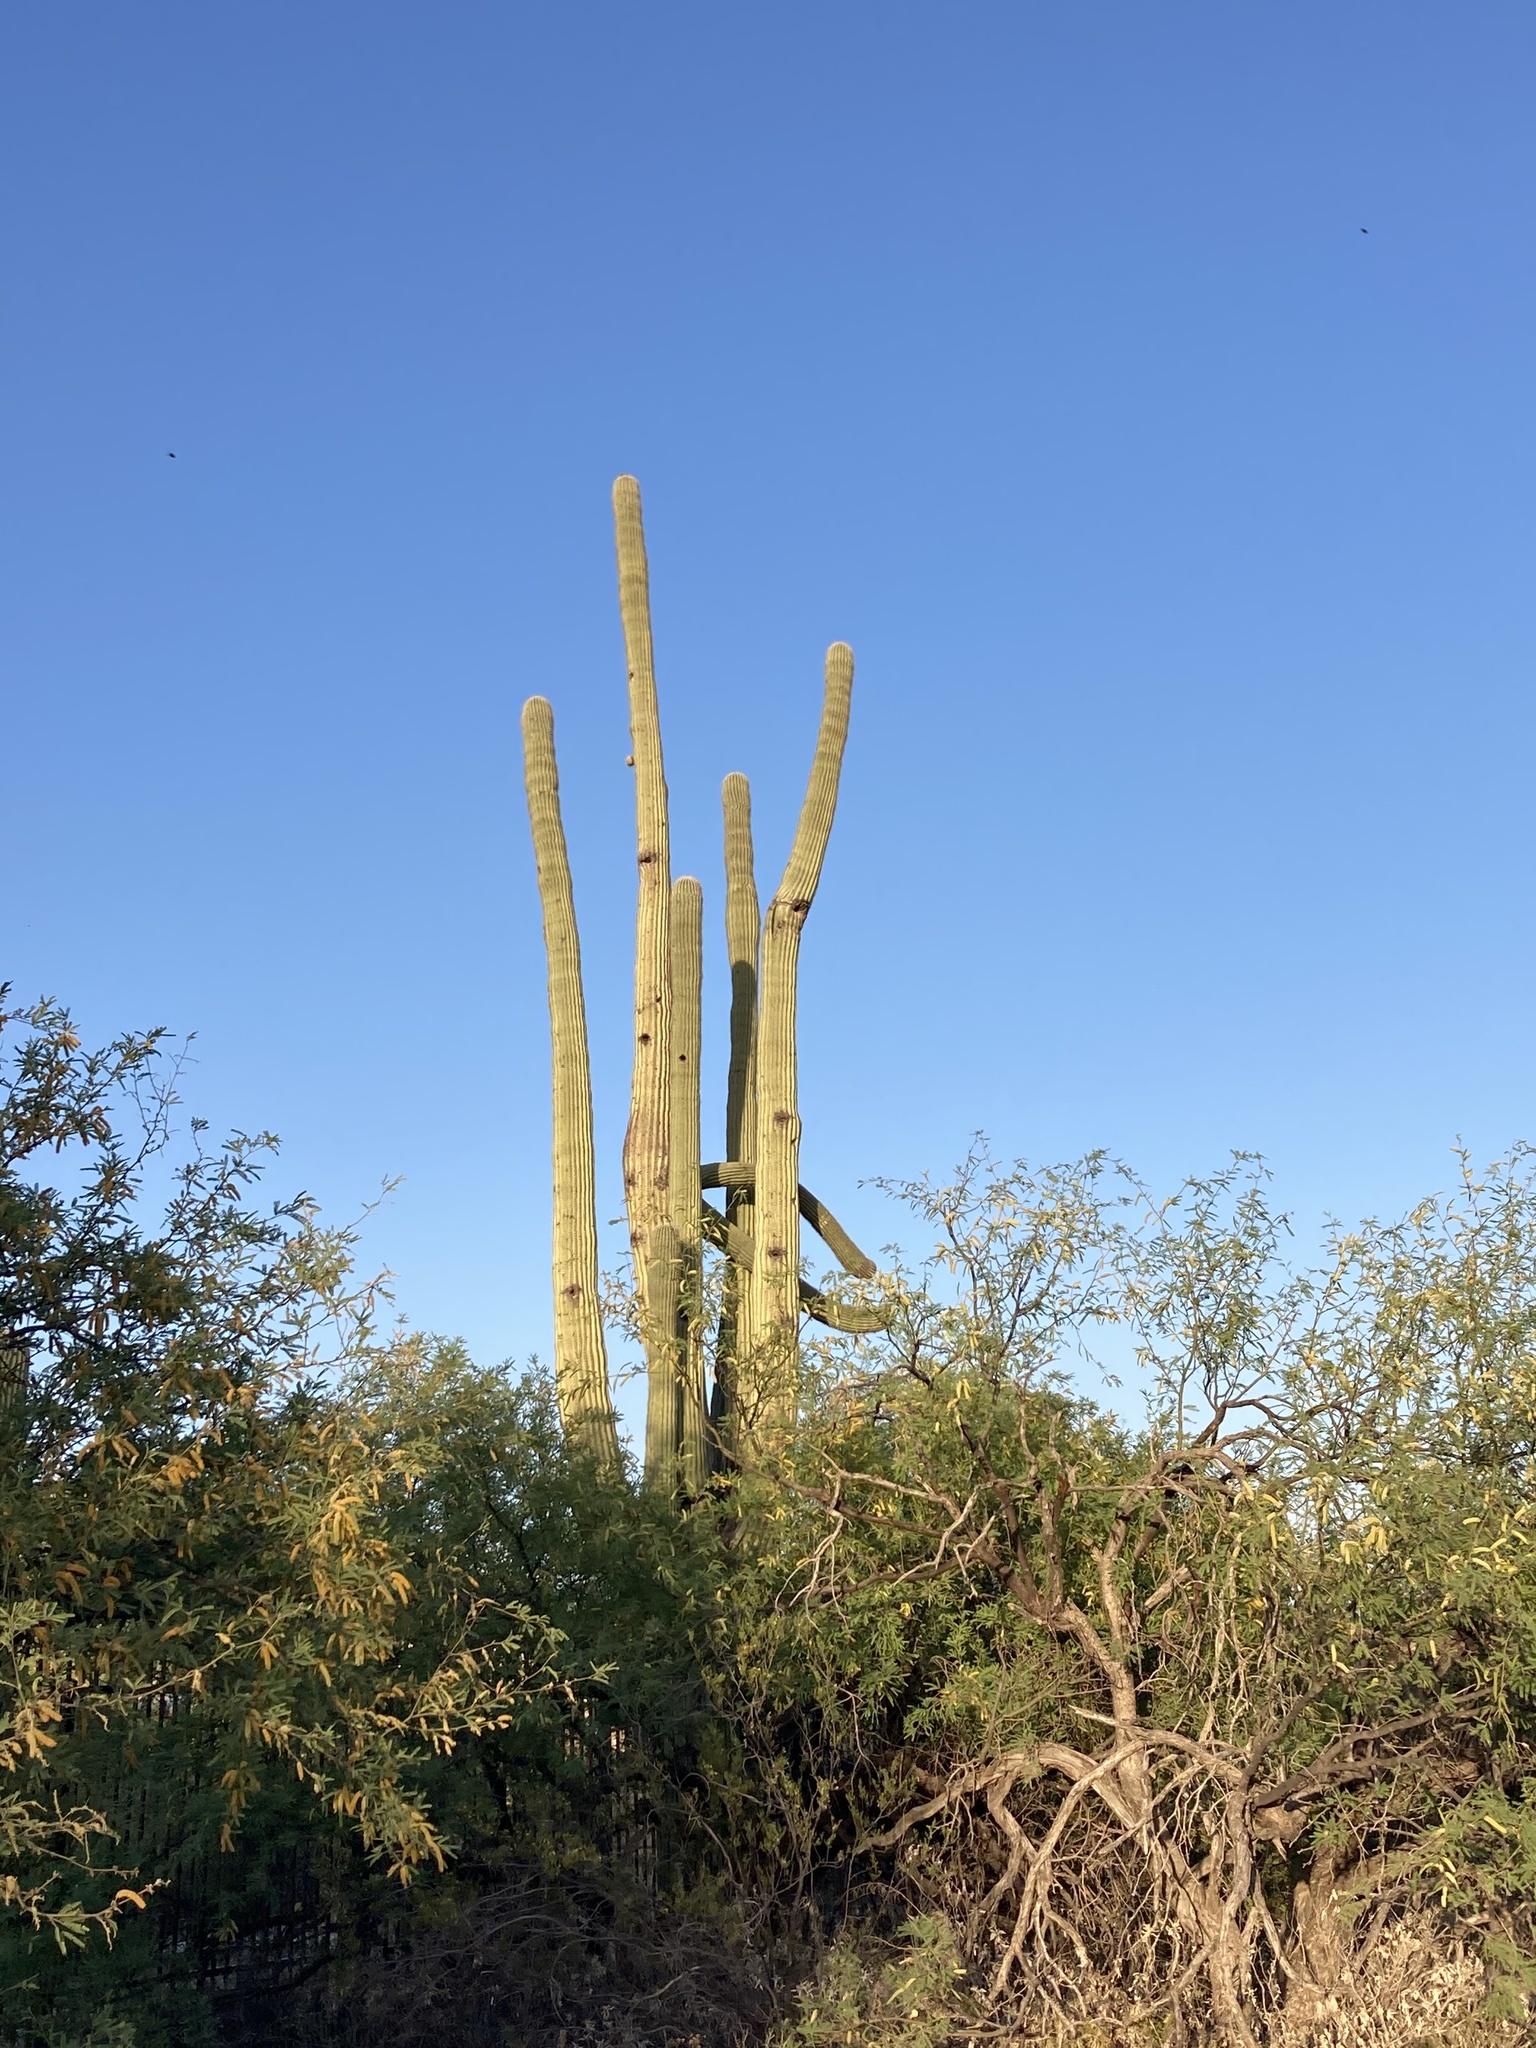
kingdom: Plantae
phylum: Tracheophyta
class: Magnoliopsida
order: Caryophyllales
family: Cactaceae
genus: Carnegiea
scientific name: Carnegiea gigantea
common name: Saguaro
